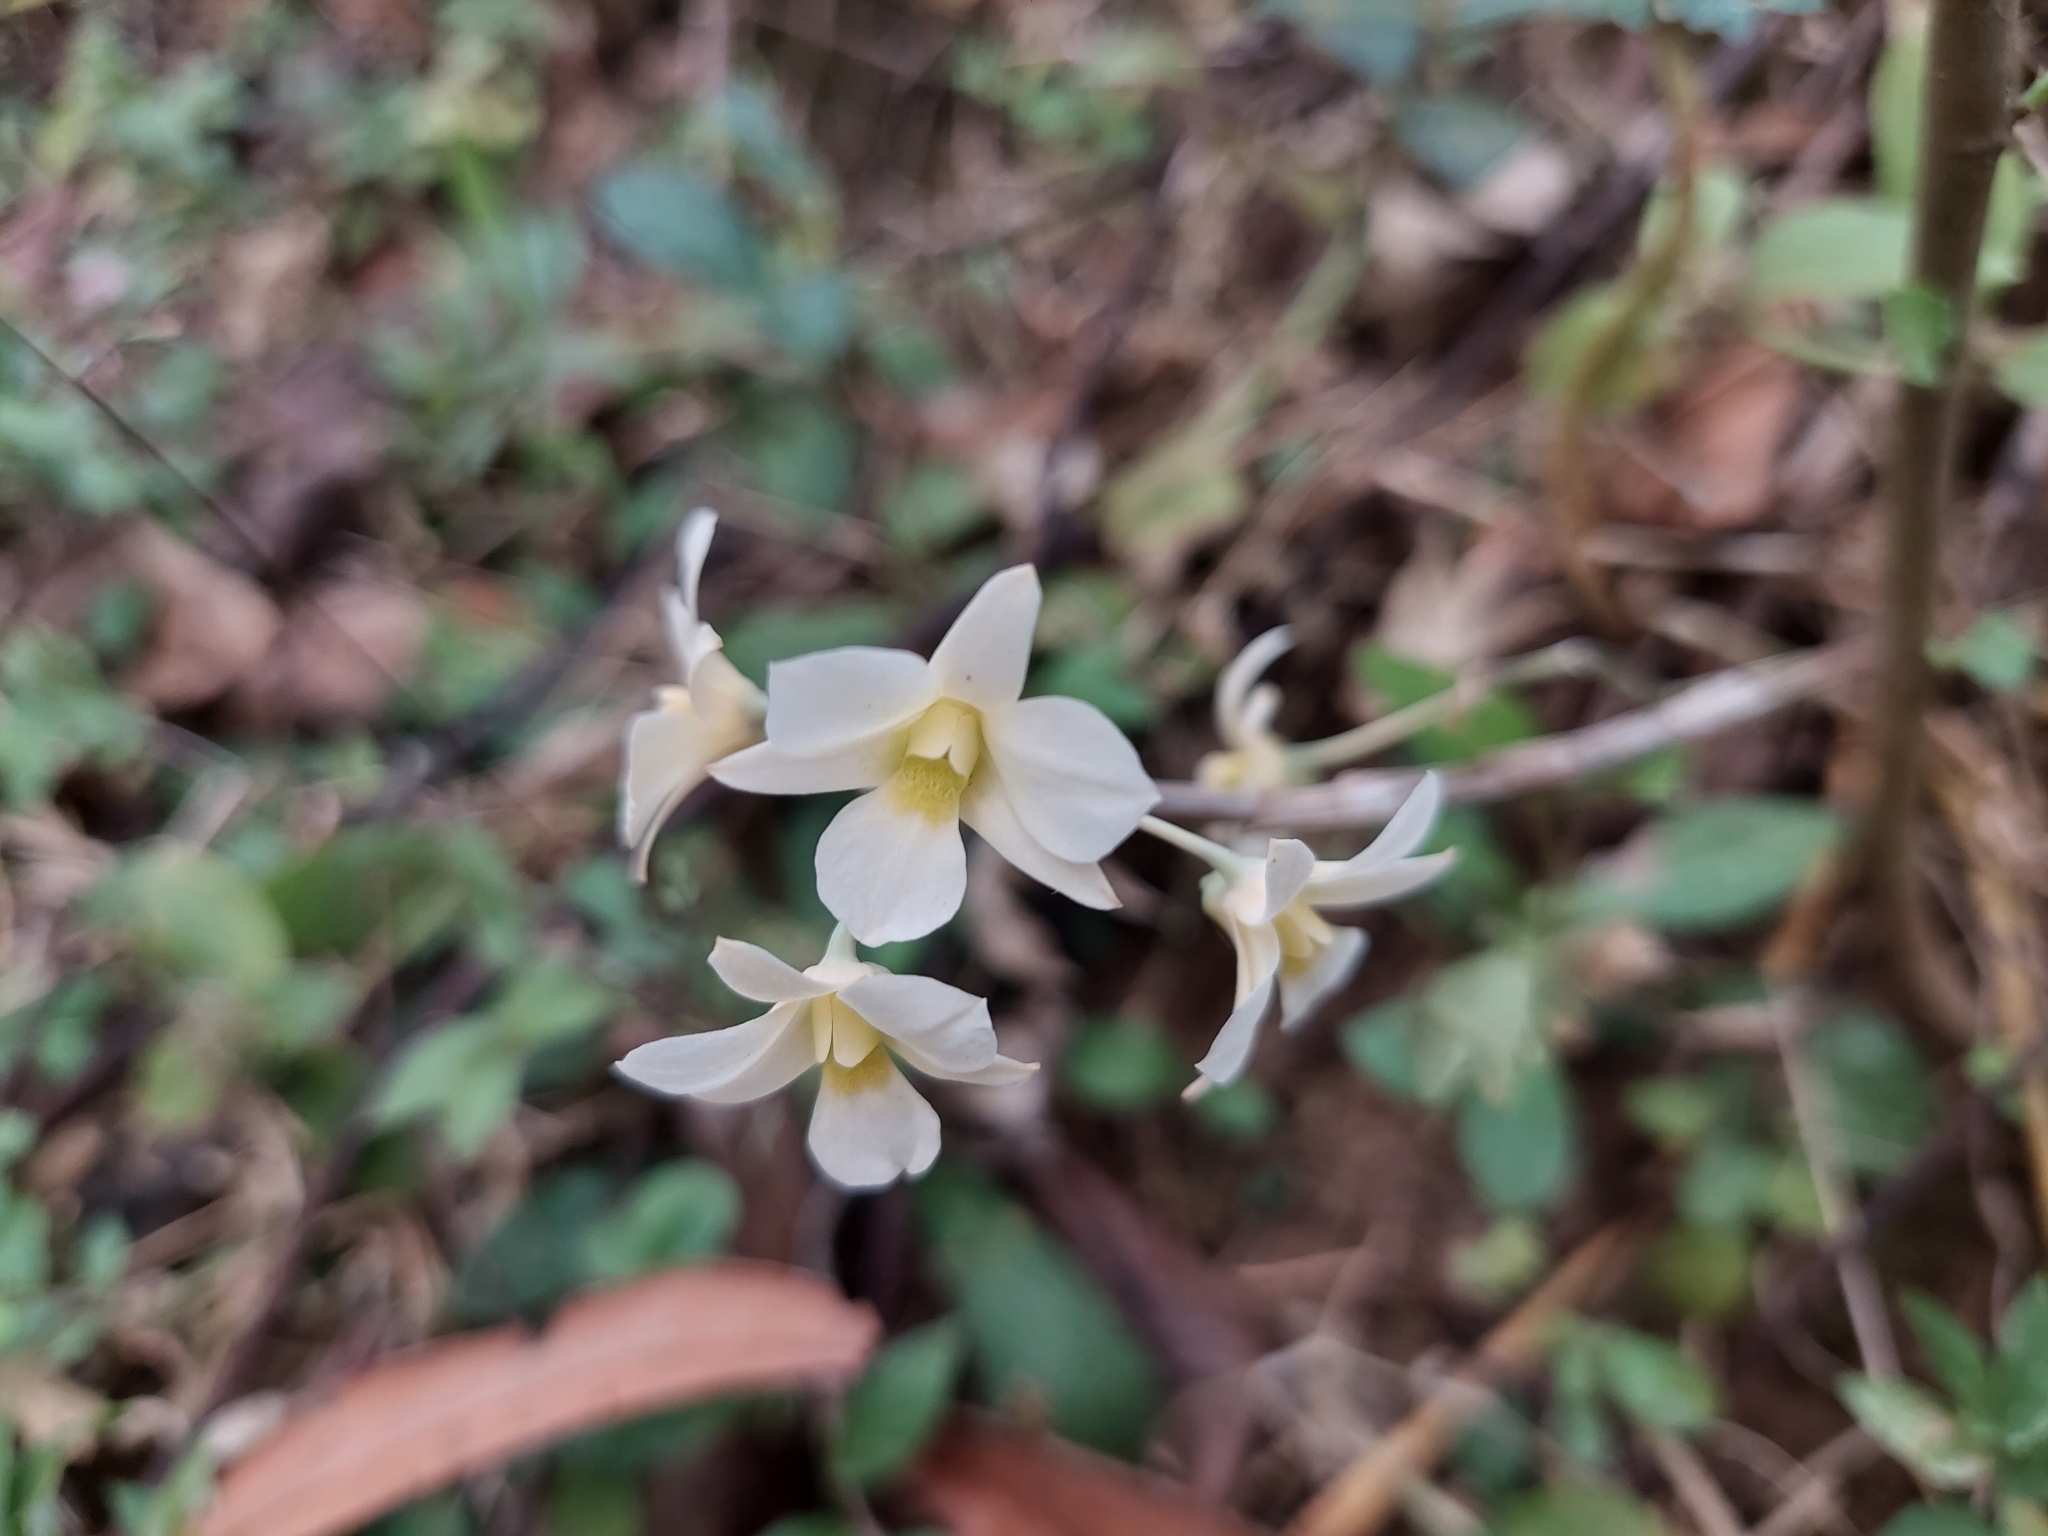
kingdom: Plantae
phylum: Tracheophyta
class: Liliopsida
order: Asparagales
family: Orchidaceae
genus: Dendrobium
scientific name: Dendrobium ovatum
